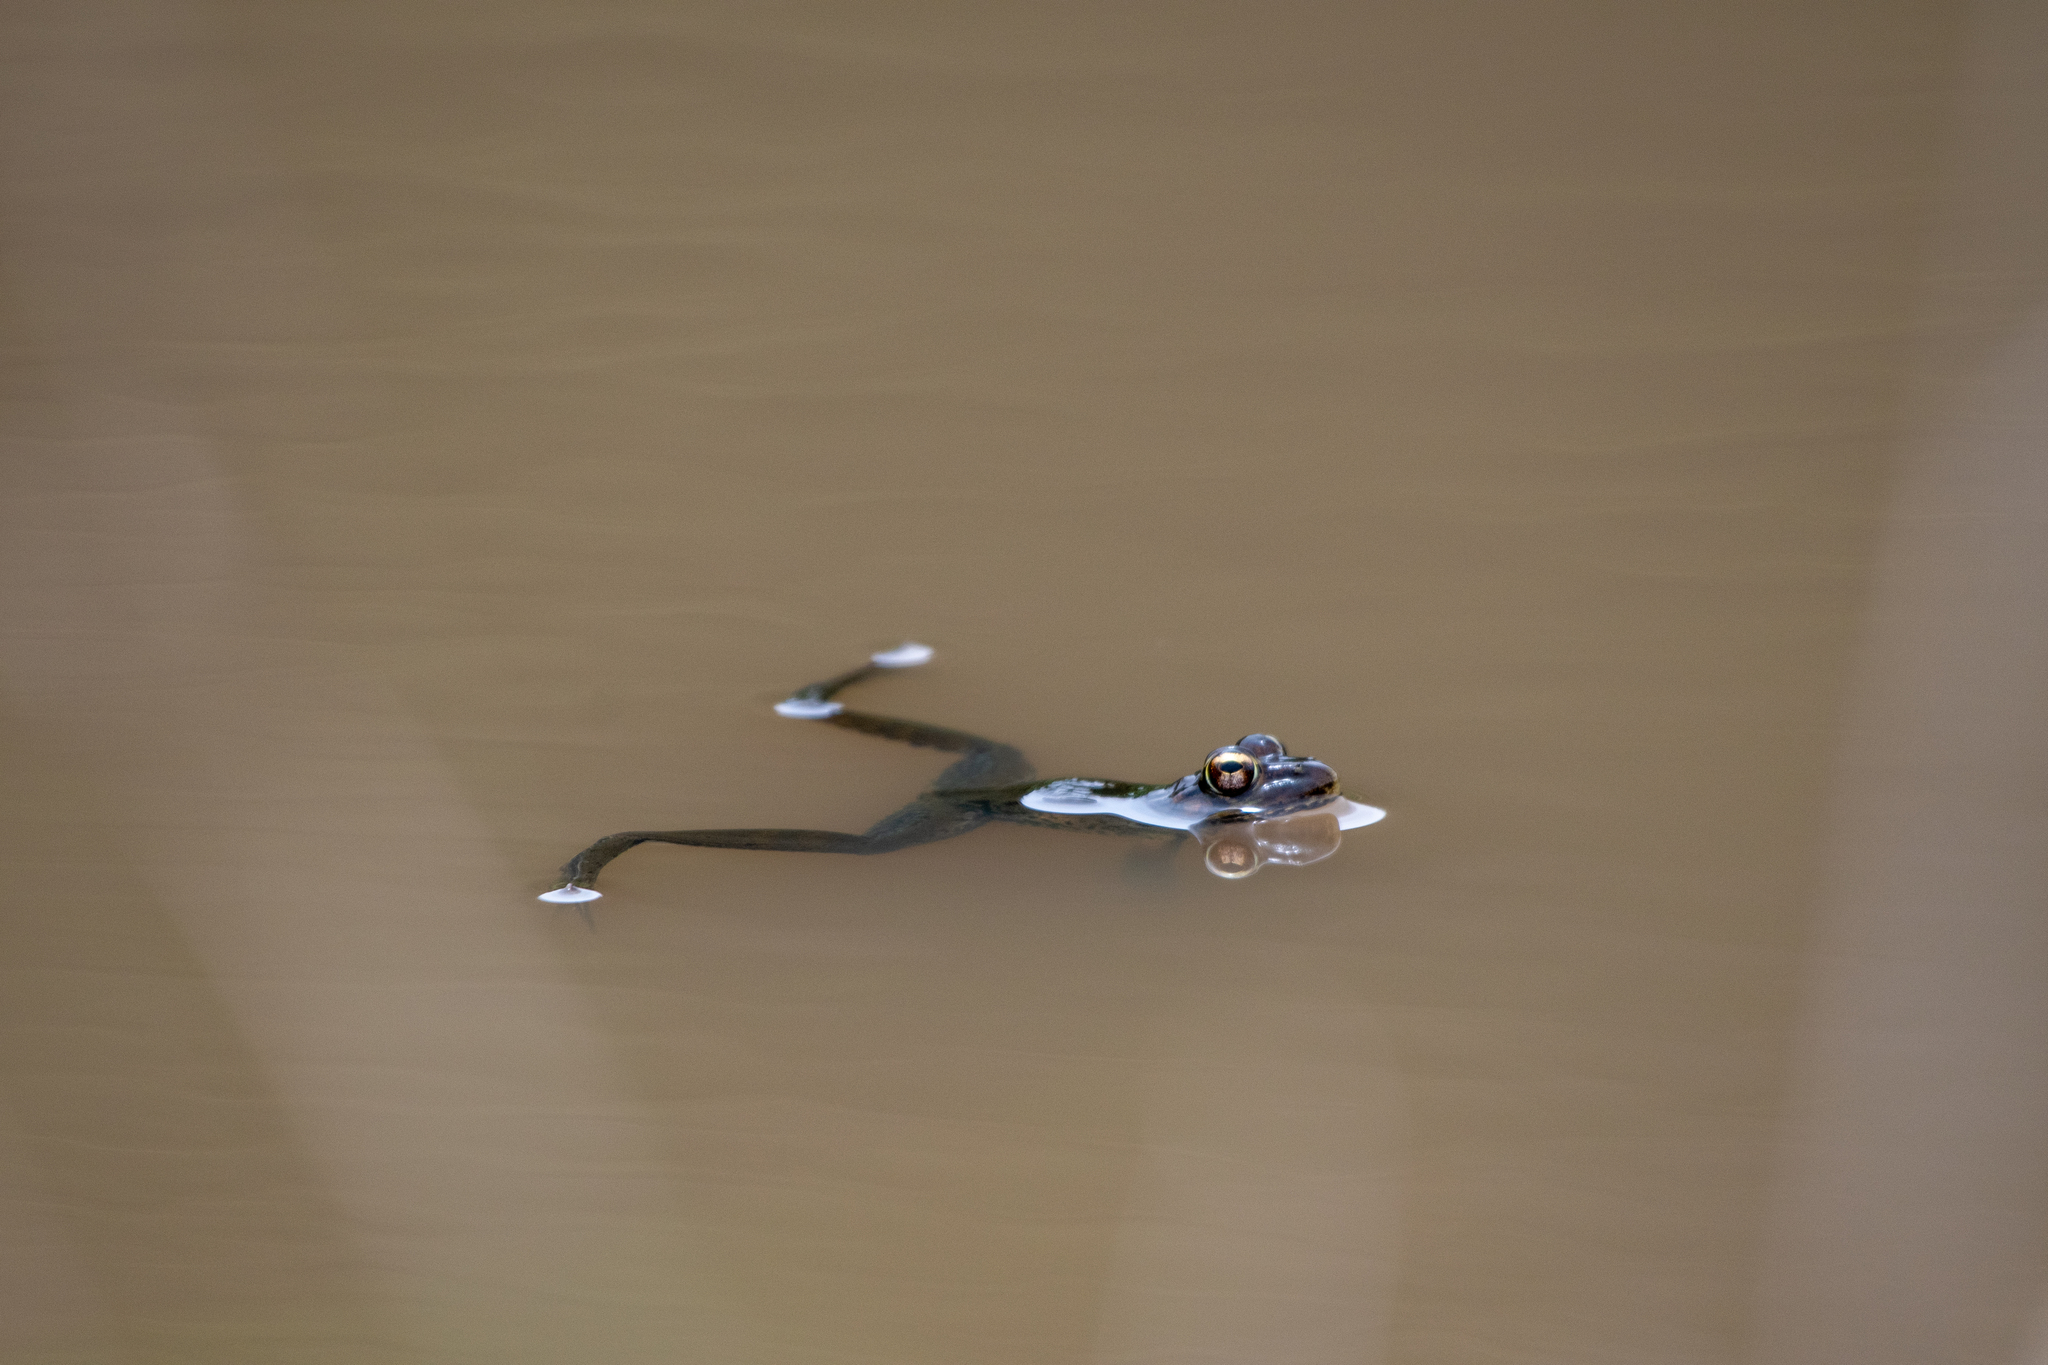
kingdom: Animalia
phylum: Chordata
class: Amphibia
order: Anura
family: Ranidae
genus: Lithobates
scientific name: Lithobates lenca
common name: Lenca leopard frog
